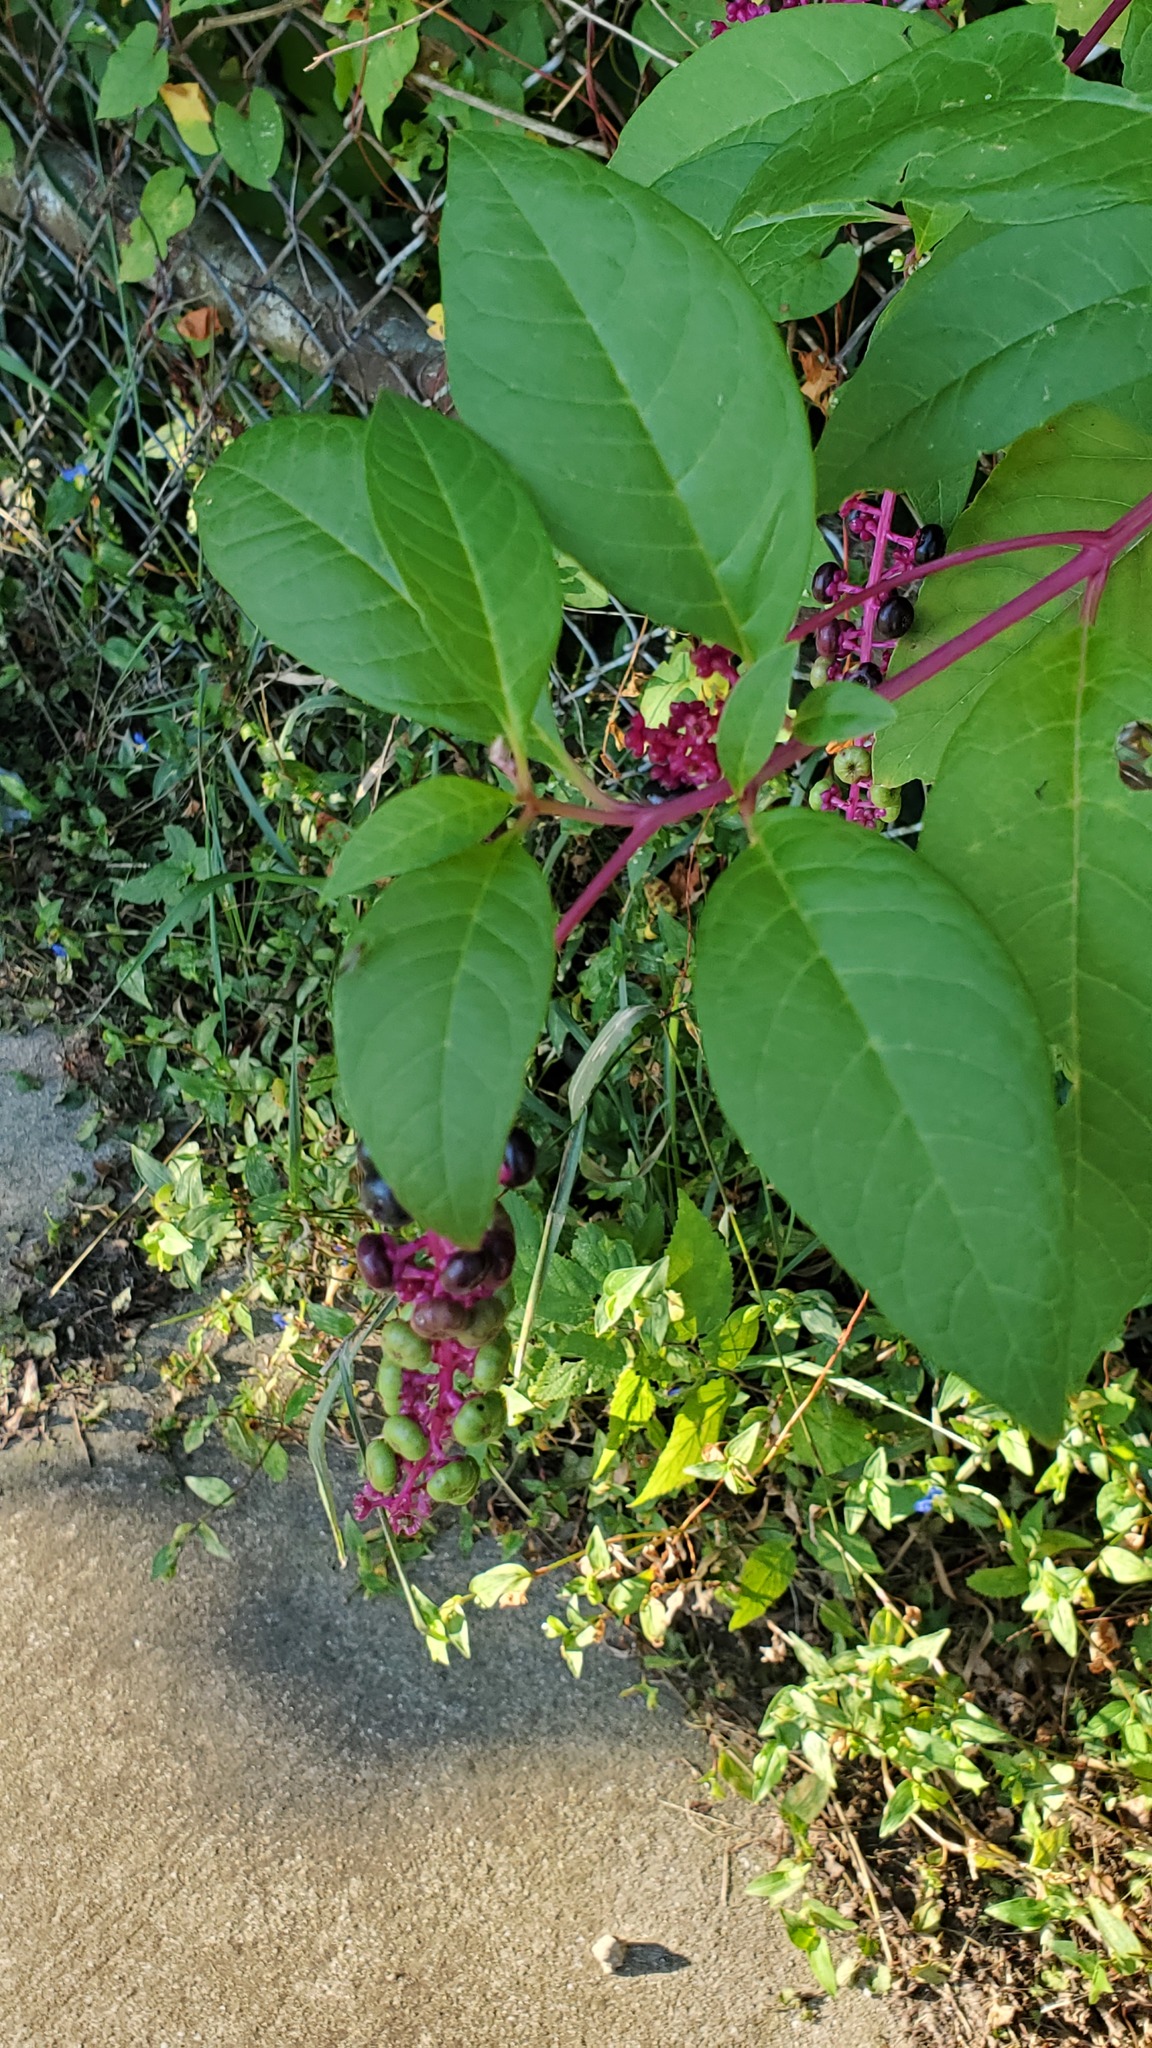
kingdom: Plantae
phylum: Tracheophyta
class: Magnoliopsida
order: Caryophyllales
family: Phytolaccaceae
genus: Phytolacca
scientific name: Phytolacca americana
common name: American pokeweed
